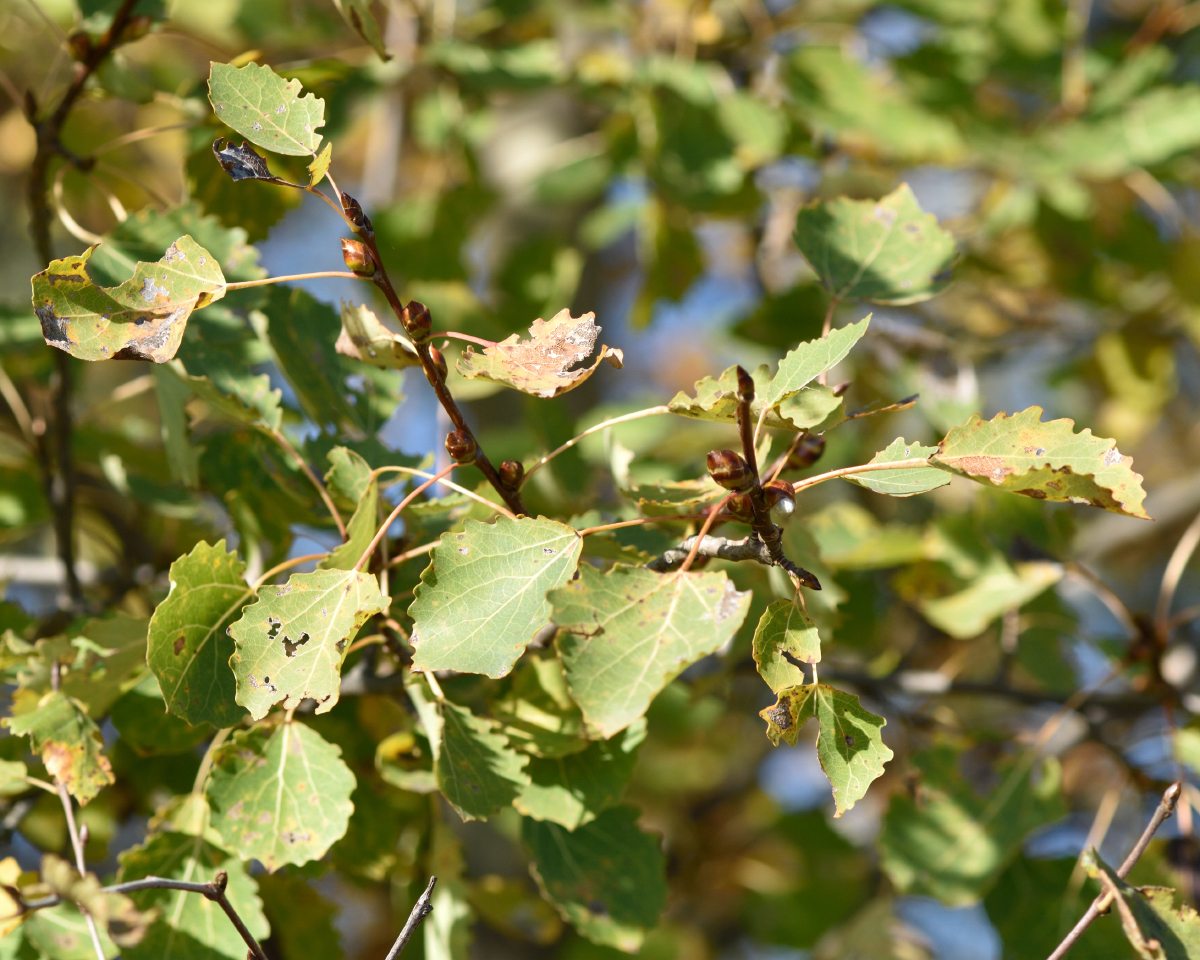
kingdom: Plantae
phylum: Tracheophyta
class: Magnoliopsida
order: Malpighiales
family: Salicaceae
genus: Populus
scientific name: Populus tremula
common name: European aspen
